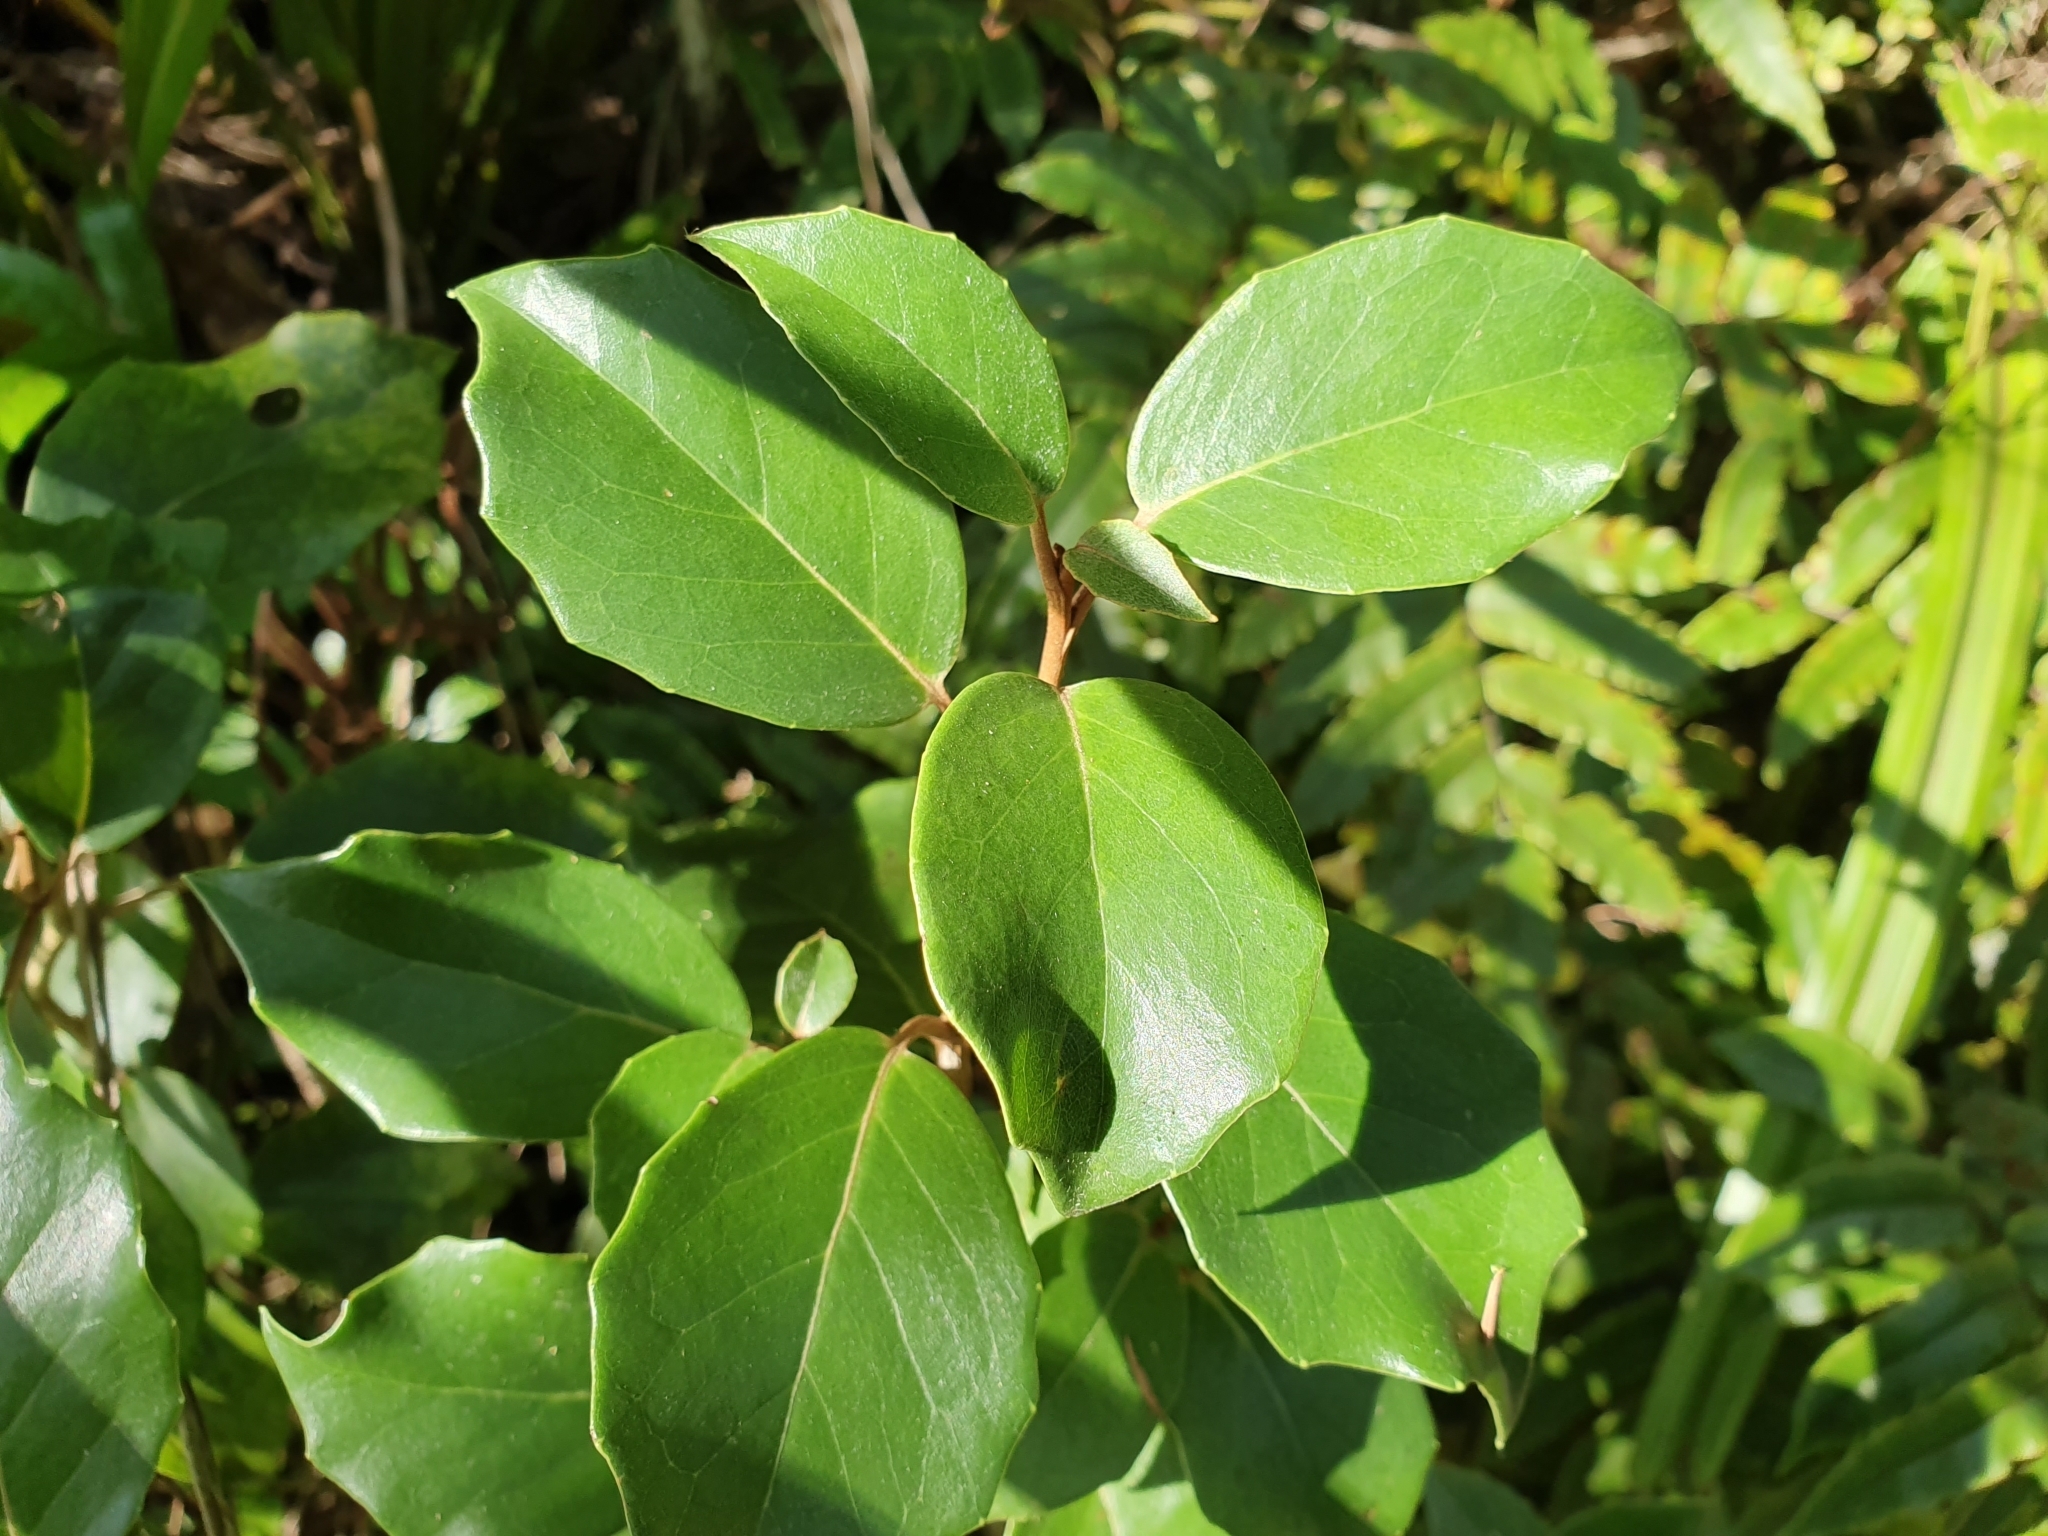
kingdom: Plantae
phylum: Tracheophyta
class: Magnoliopsida
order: Asterales
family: Asteraceae
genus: Olearia
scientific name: Olearia arborescens
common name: Glossy tree daisy
